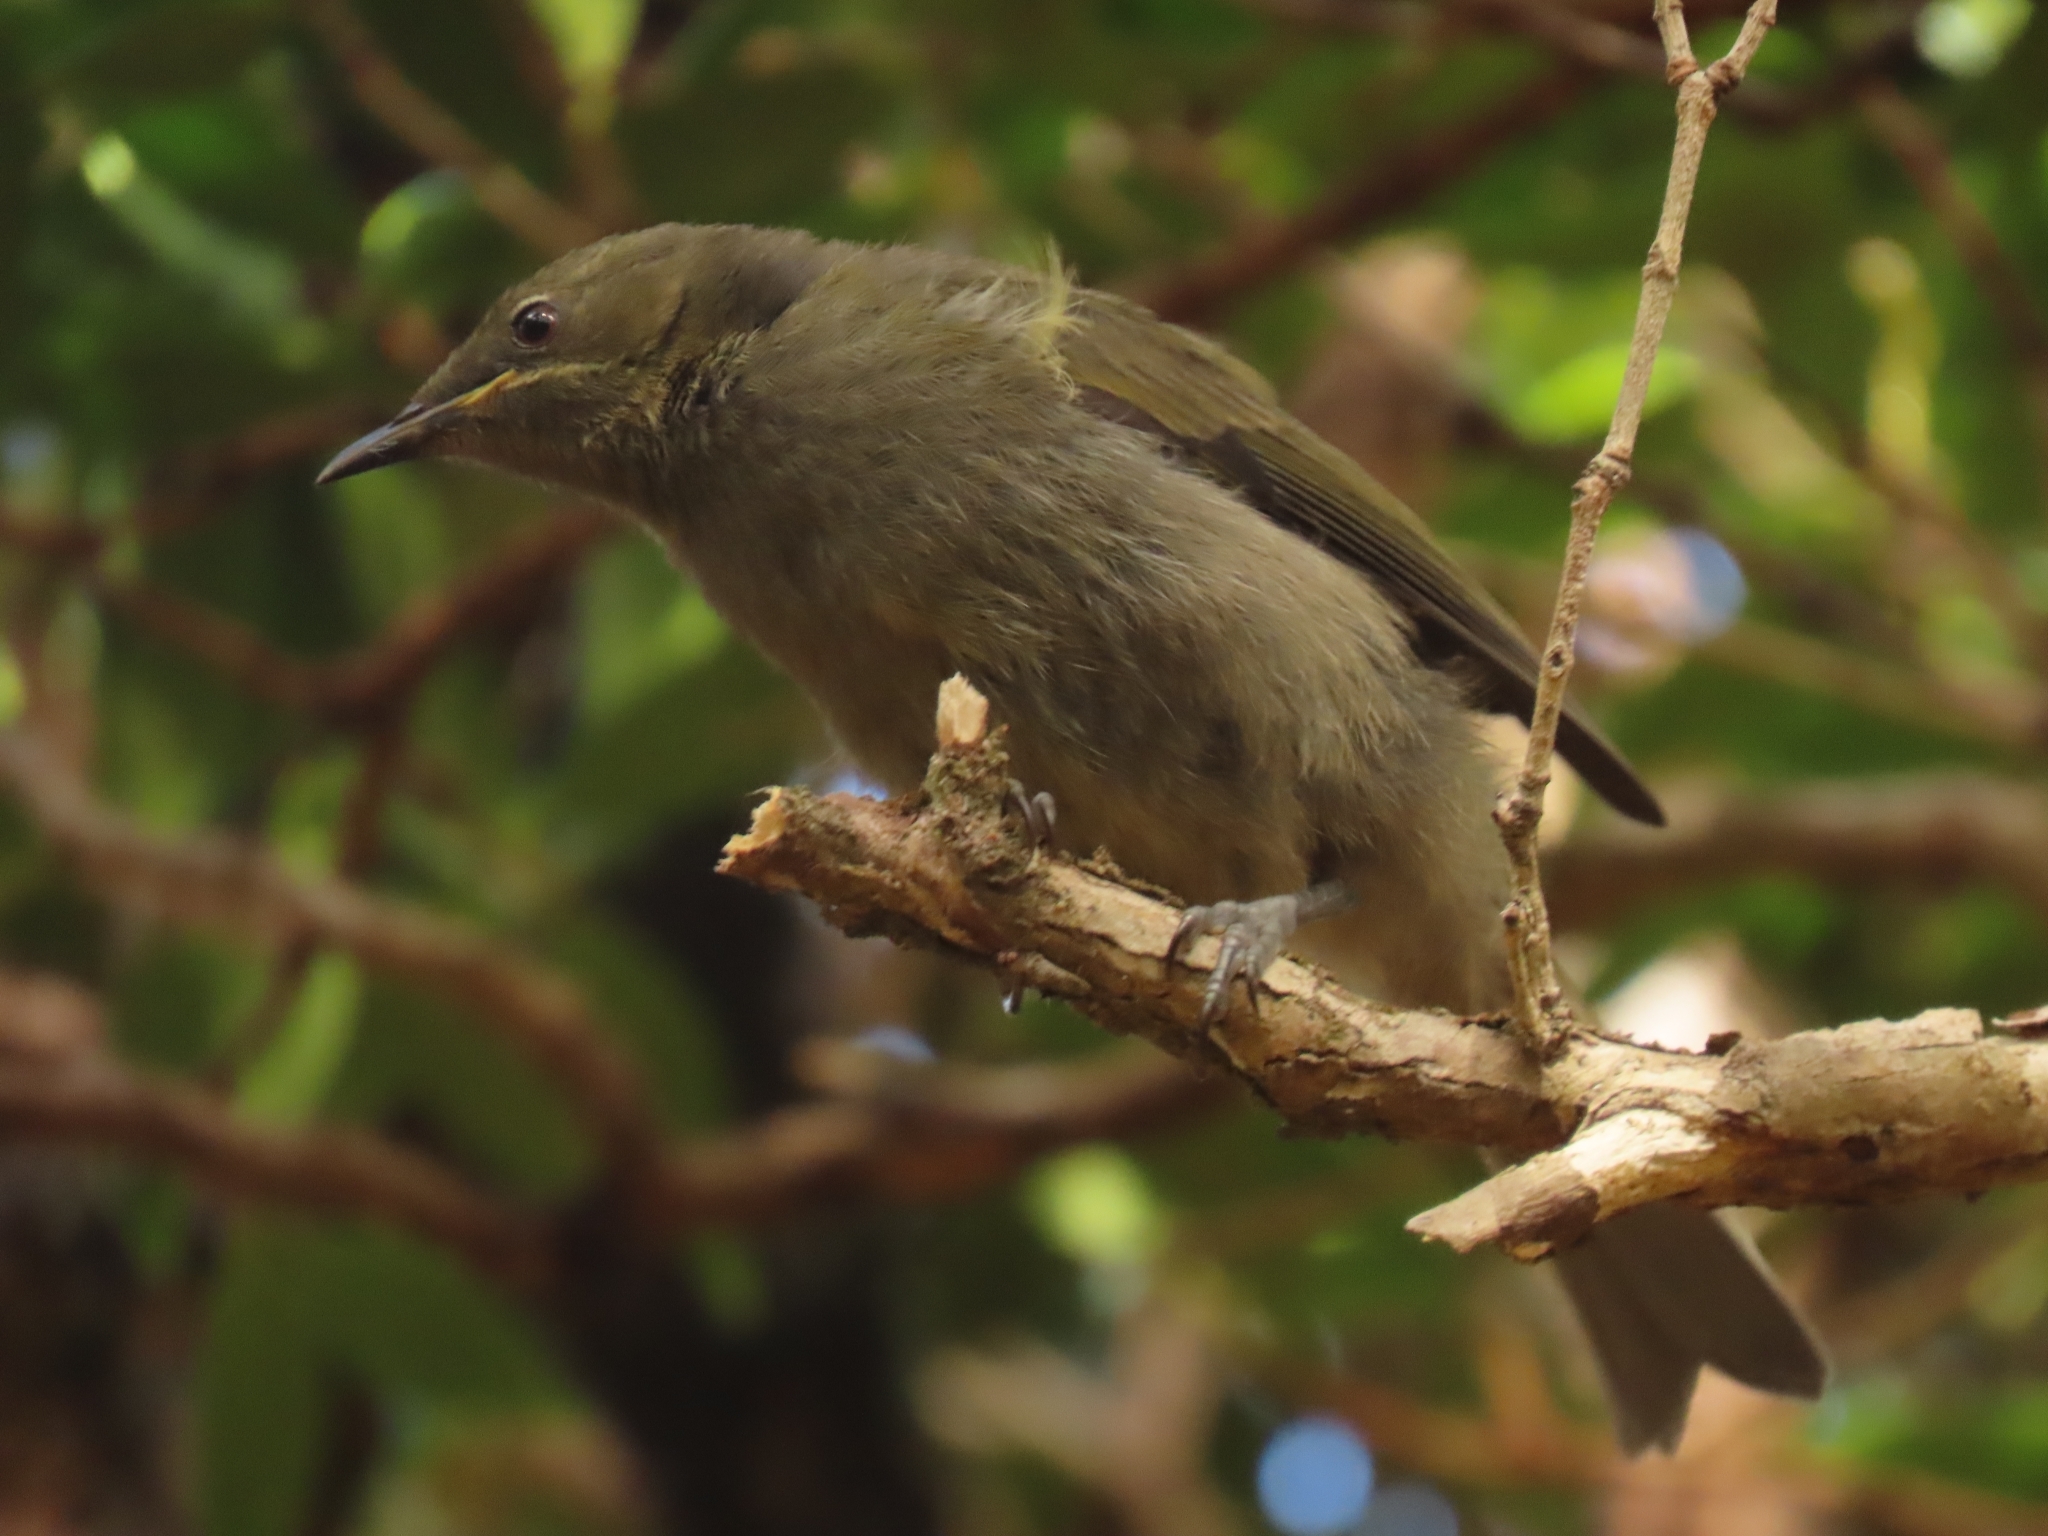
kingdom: Animalia
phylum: Chordata
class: Aves
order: Passeriformes
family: Meliphagidae
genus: Anthornis
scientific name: Anthornis melanura
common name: New zealand bellbird
